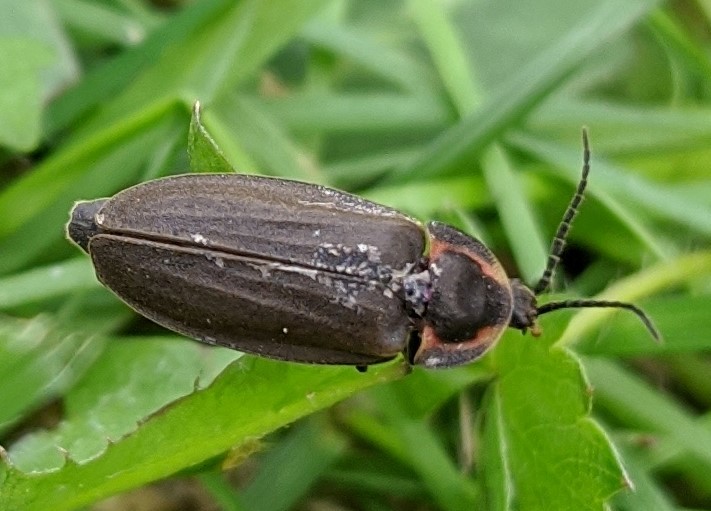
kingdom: Animalia
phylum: Arthropoda
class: Insecta
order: Coleoptera
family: Lampyridae
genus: Photinus
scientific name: Photinus corrusca
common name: Winter firefly
